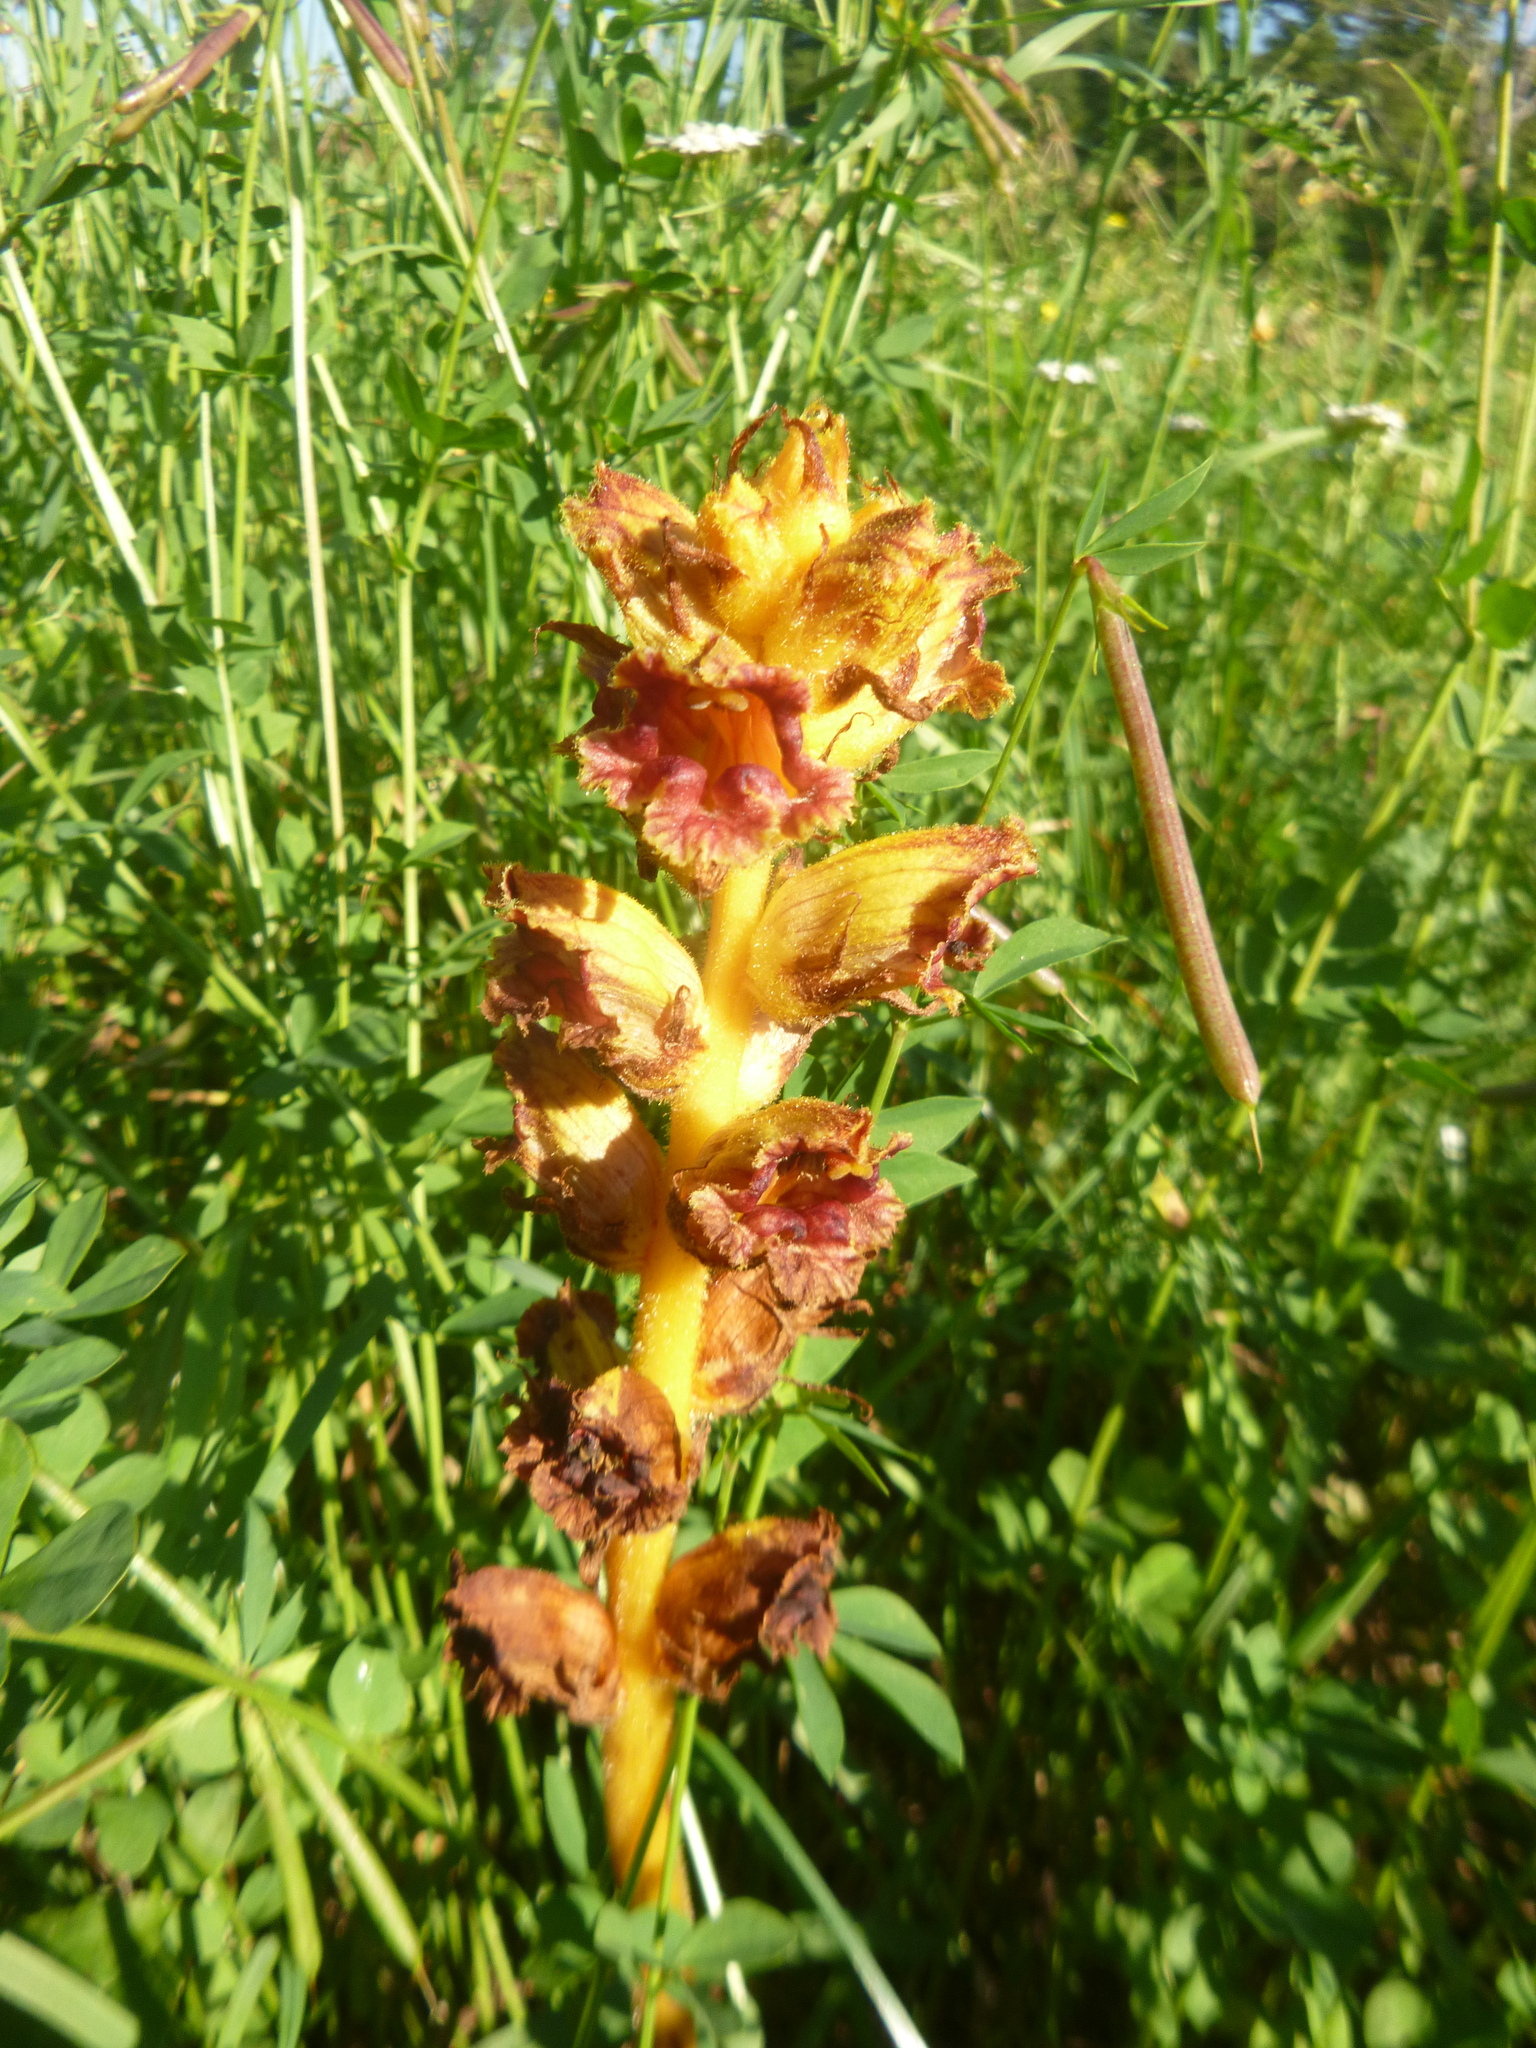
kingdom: Plantae
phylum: Tracheophyta
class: Magnoliopsida
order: Lamiales
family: Orobanchaceae
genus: Orobanche
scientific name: Orobanche gracilis
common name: Slender broomrape
